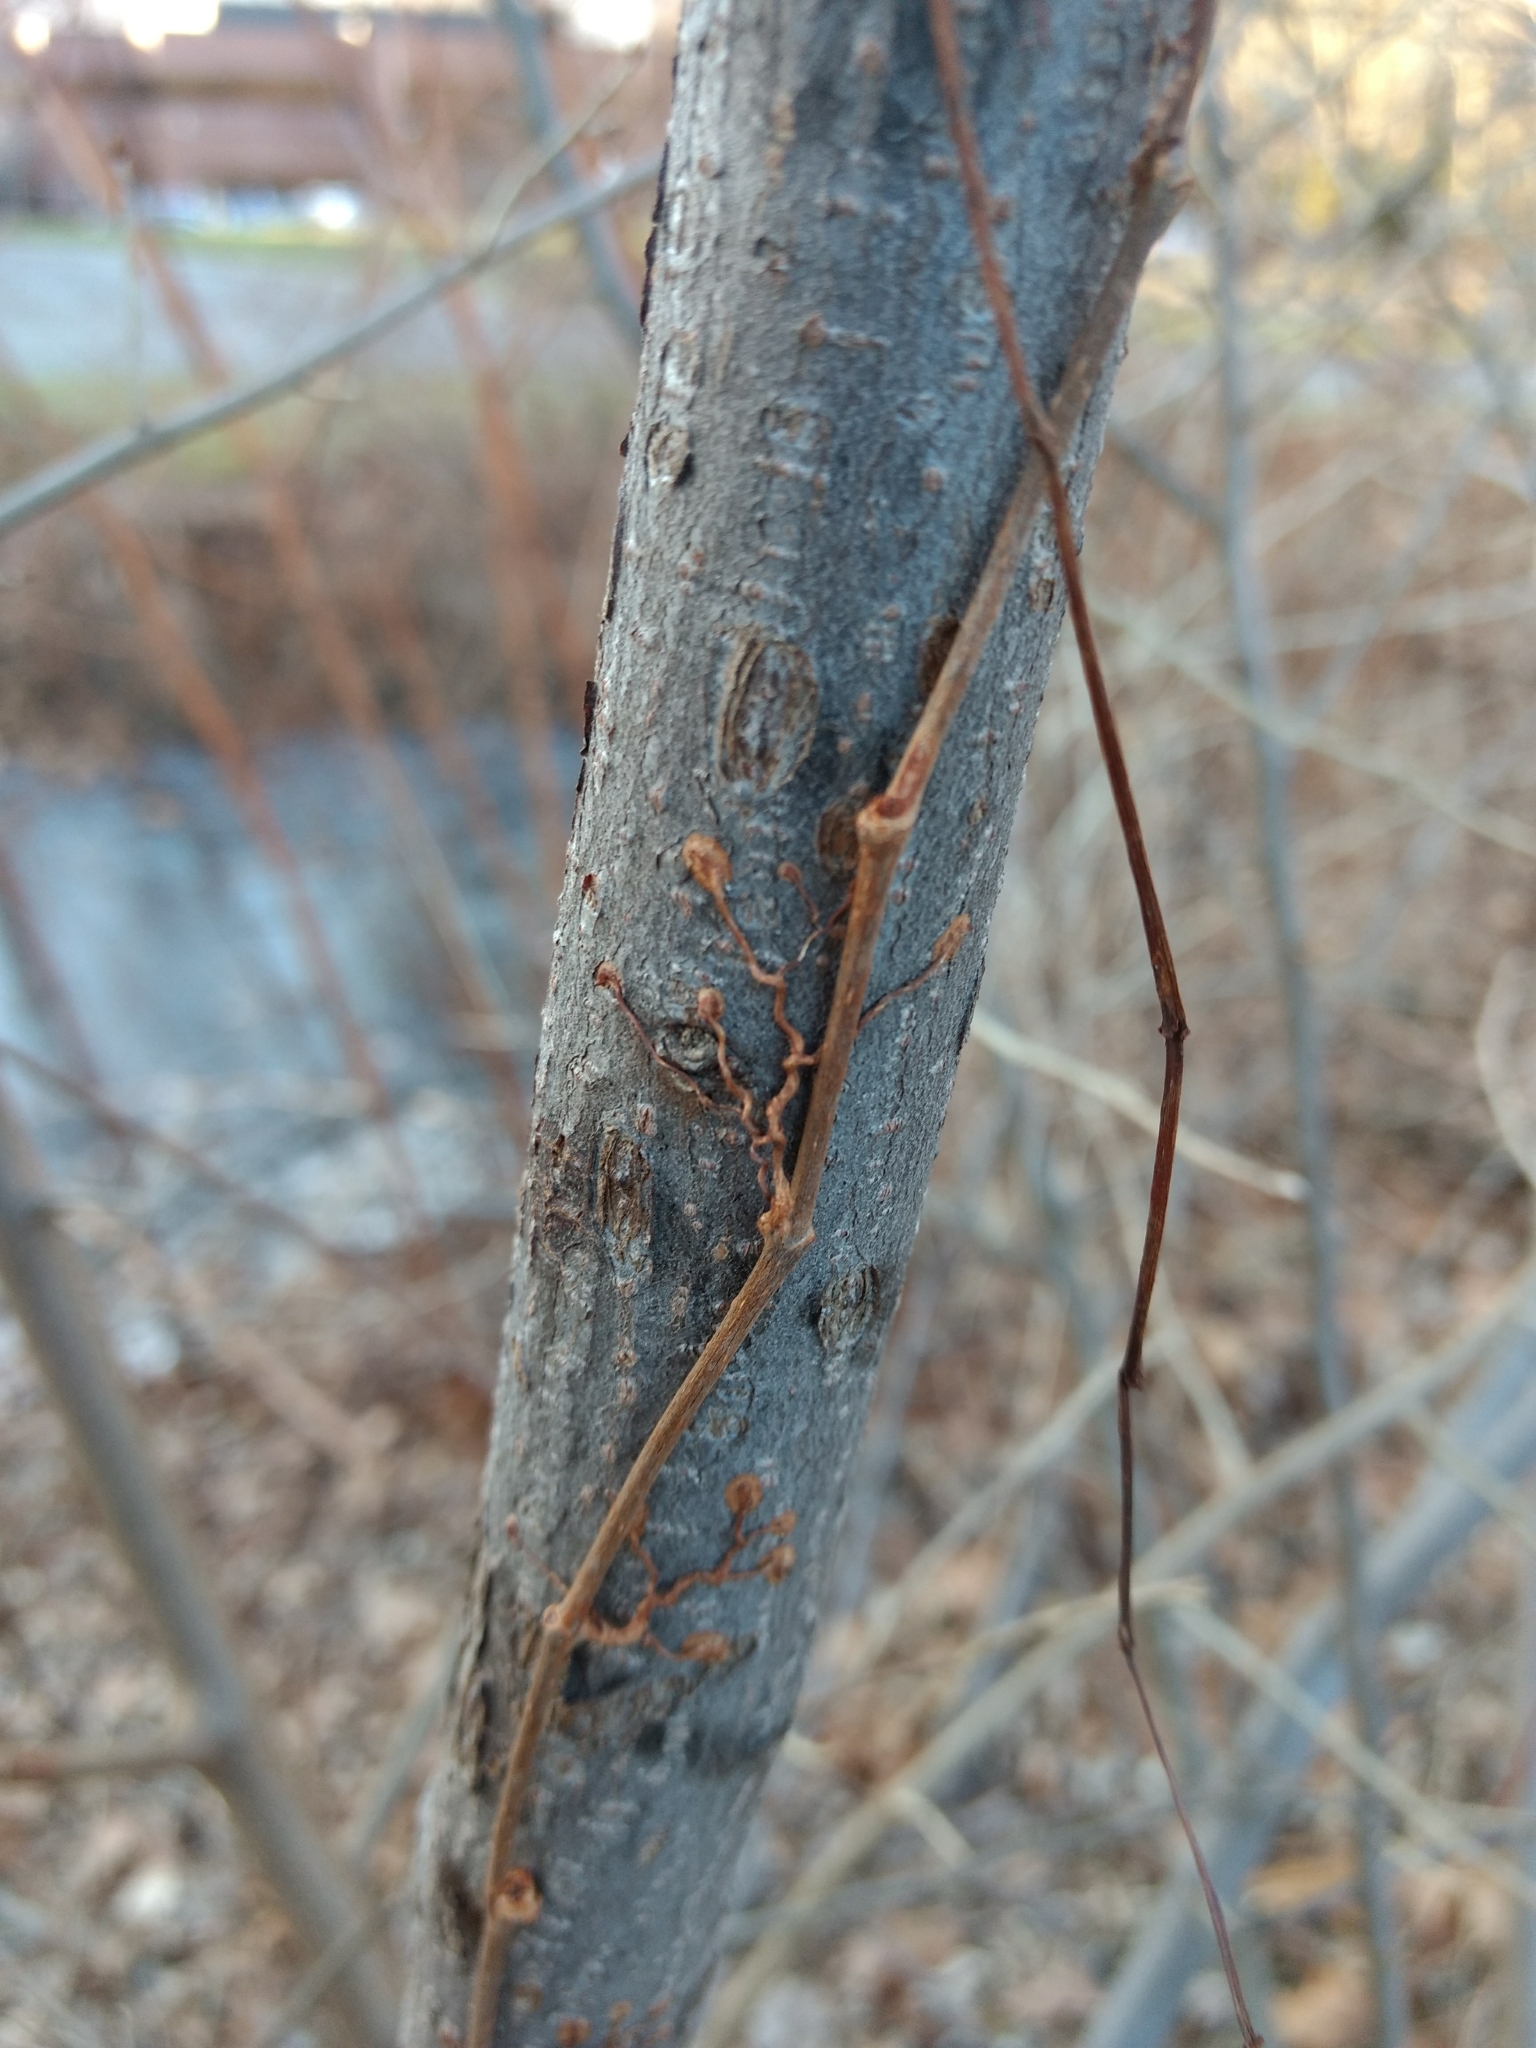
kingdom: Plantae
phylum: Tracheophyta
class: Magnoliopsida
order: Vitales
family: Vitaceae
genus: Parthenocissus
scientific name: Parthenocissus quinquefolia
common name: Virginia-creeper
